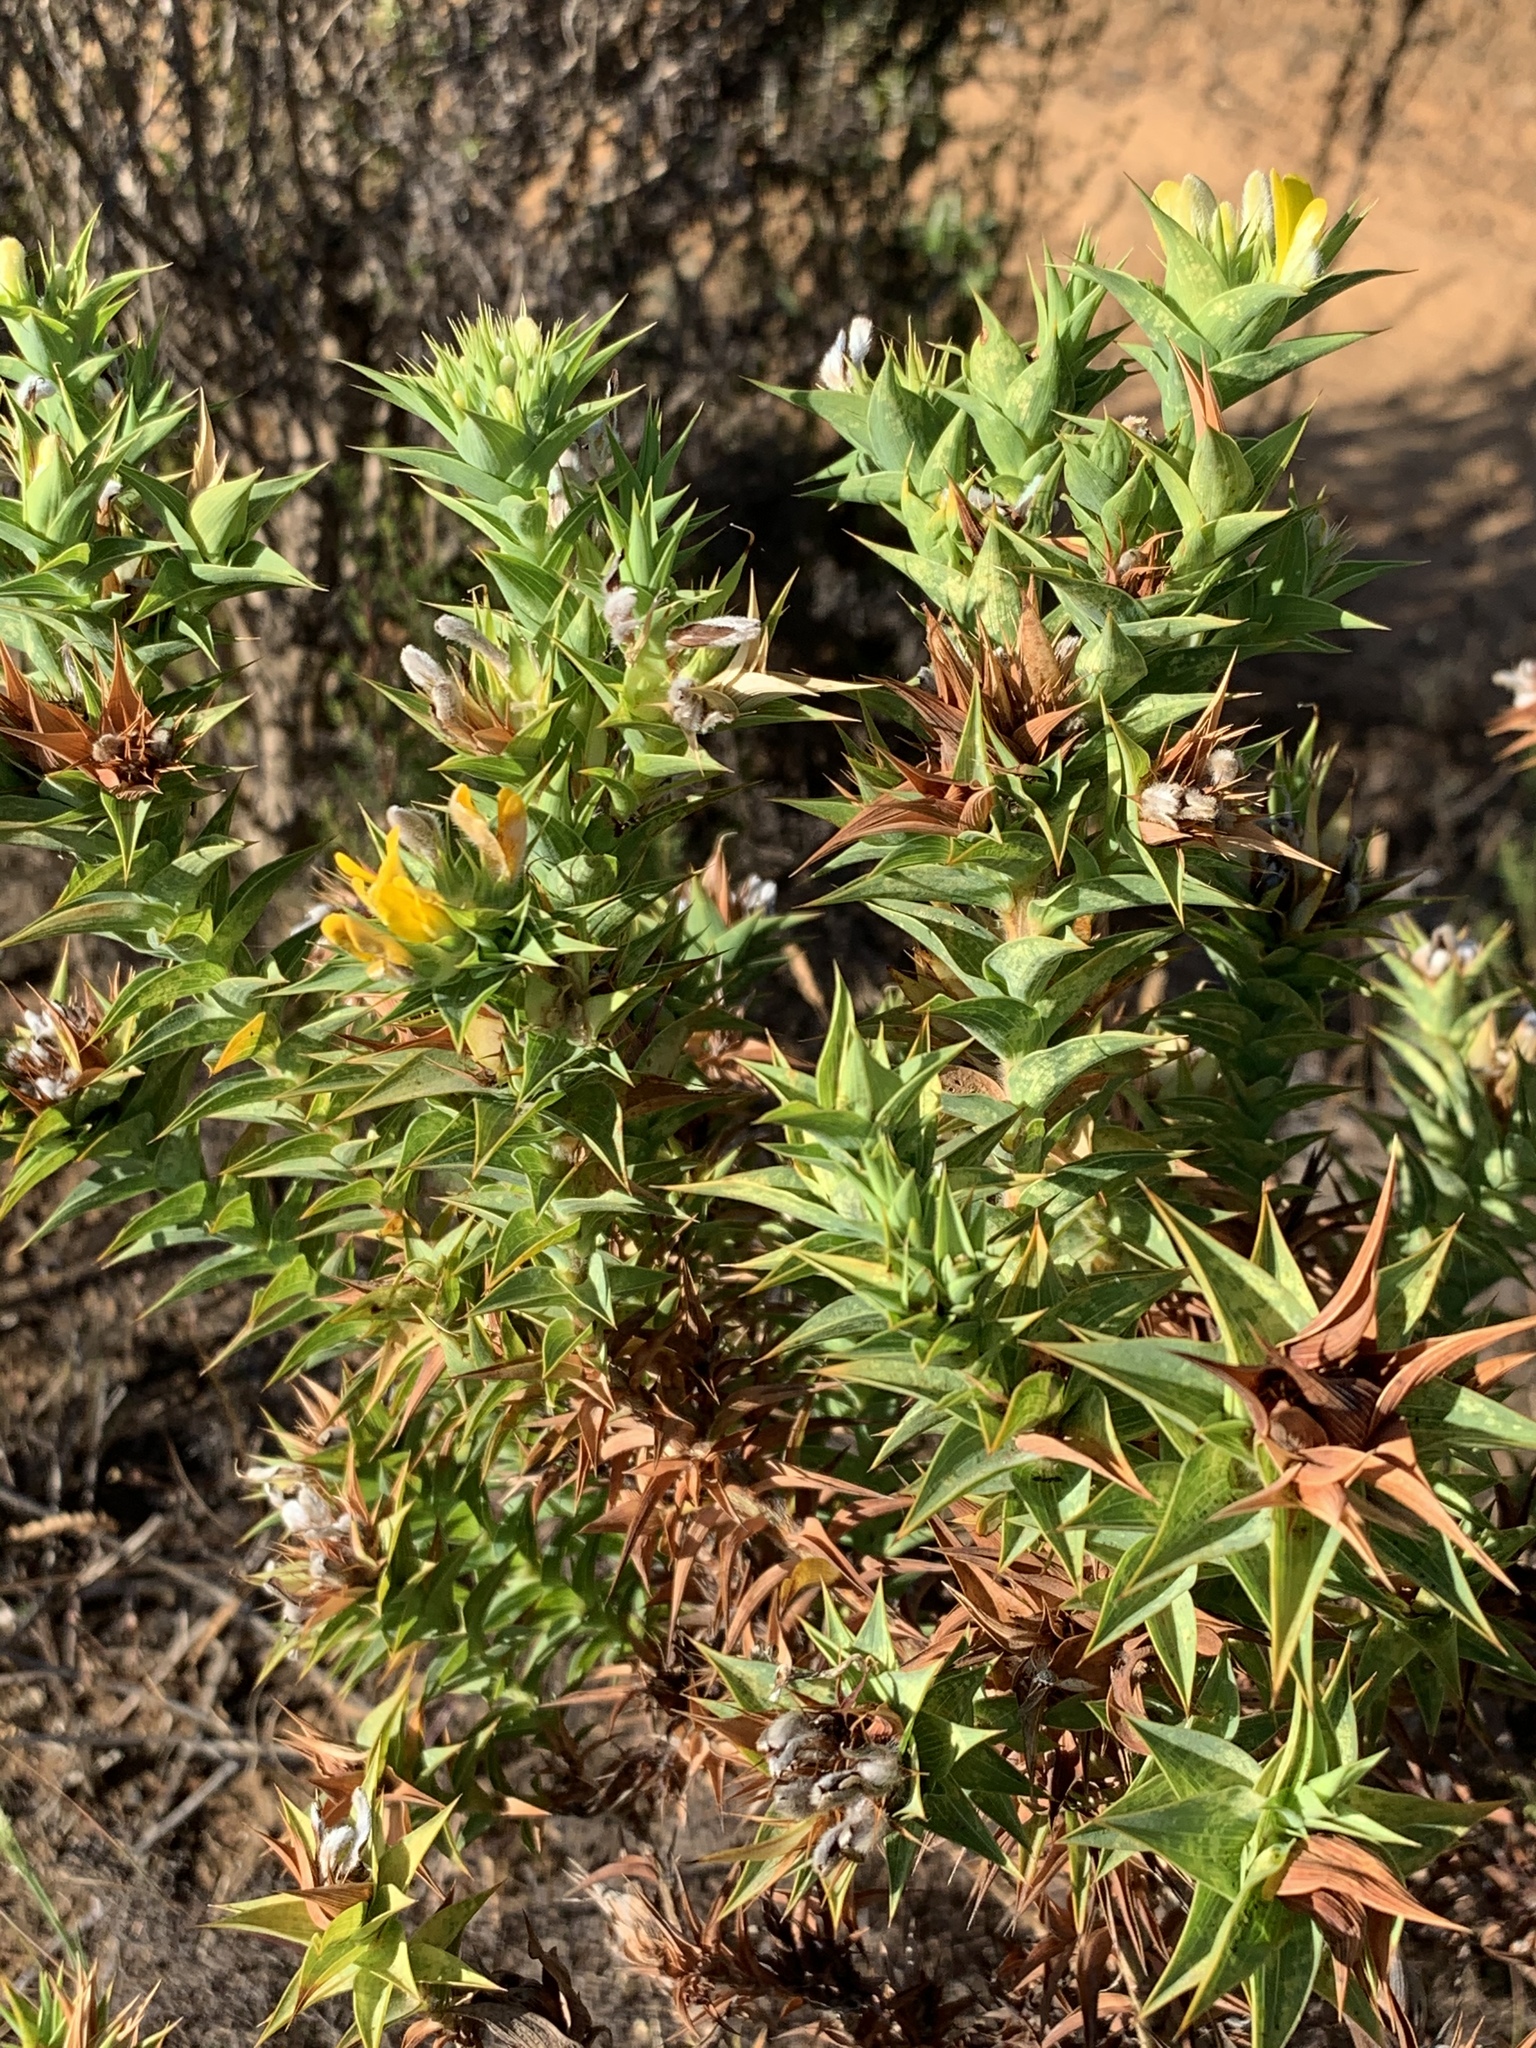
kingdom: Plantae
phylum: Tracheophyta
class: Magnoliopsida
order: Fabales
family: Fabaceae
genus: Aspalathus
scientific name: Aspalathus cordata
